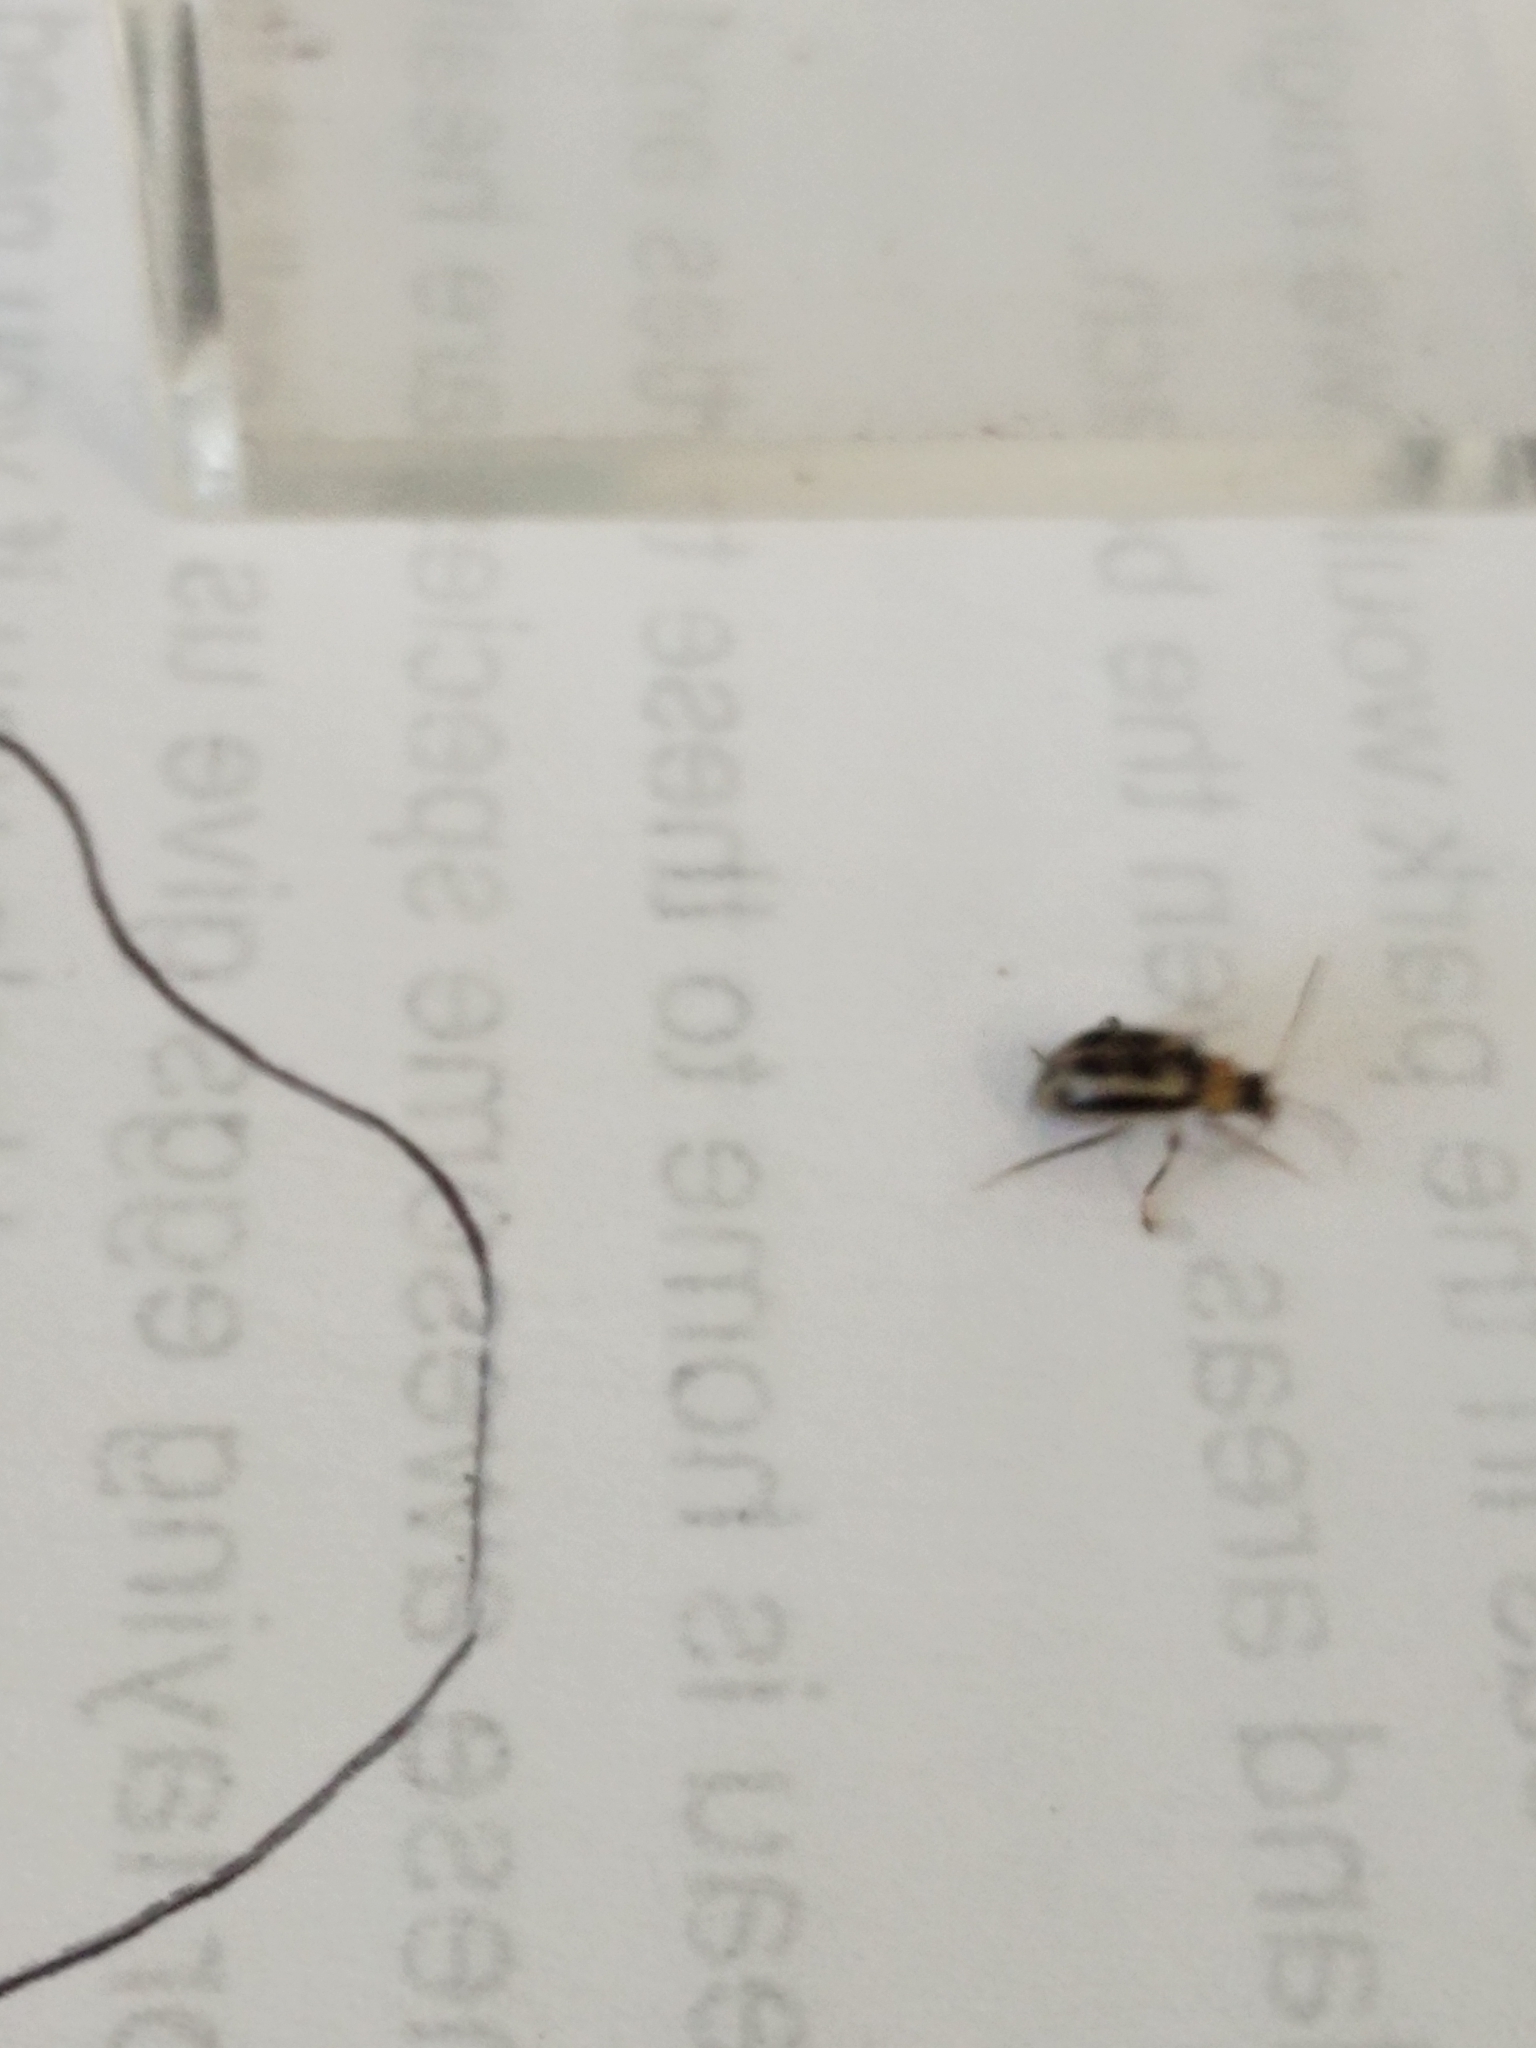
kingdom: Animalia
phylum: Arthropoda
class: Insecta
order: Coleoptera
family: Chrysomelidae
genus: Cerotoma
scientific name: Cerotoma trifurcata
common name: Bean leaf beetle
